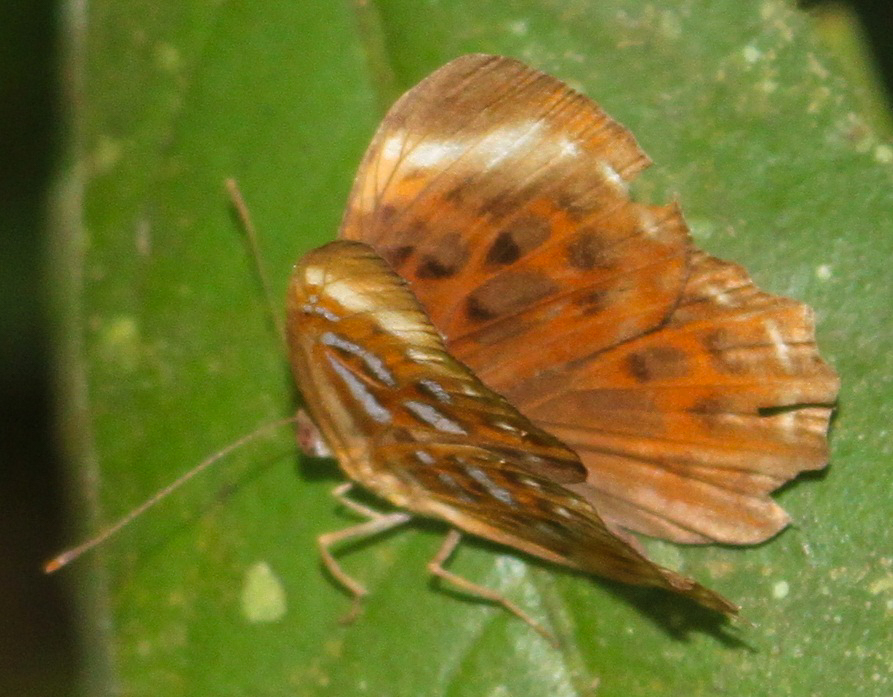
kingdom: Animalia
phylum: Arthropoda
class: Insecta
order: Lepidoptera
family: Erebidae
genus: Dysschema
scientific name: Dysschema
